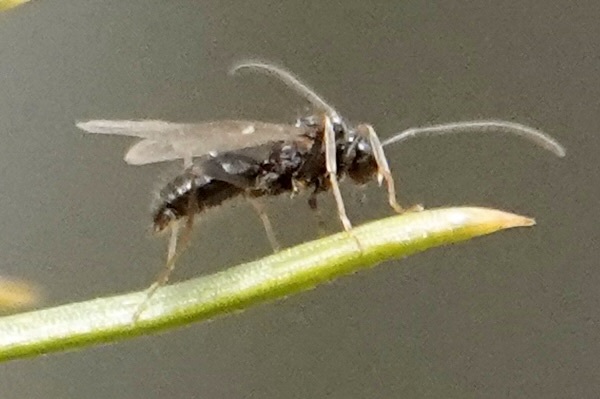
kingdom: Animalia
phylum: Arthropoda
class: Insecta
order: Hymenoptera
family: Formicidae
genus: Prenolepis
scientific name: Prenolepis imparis
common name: Small honey ant
